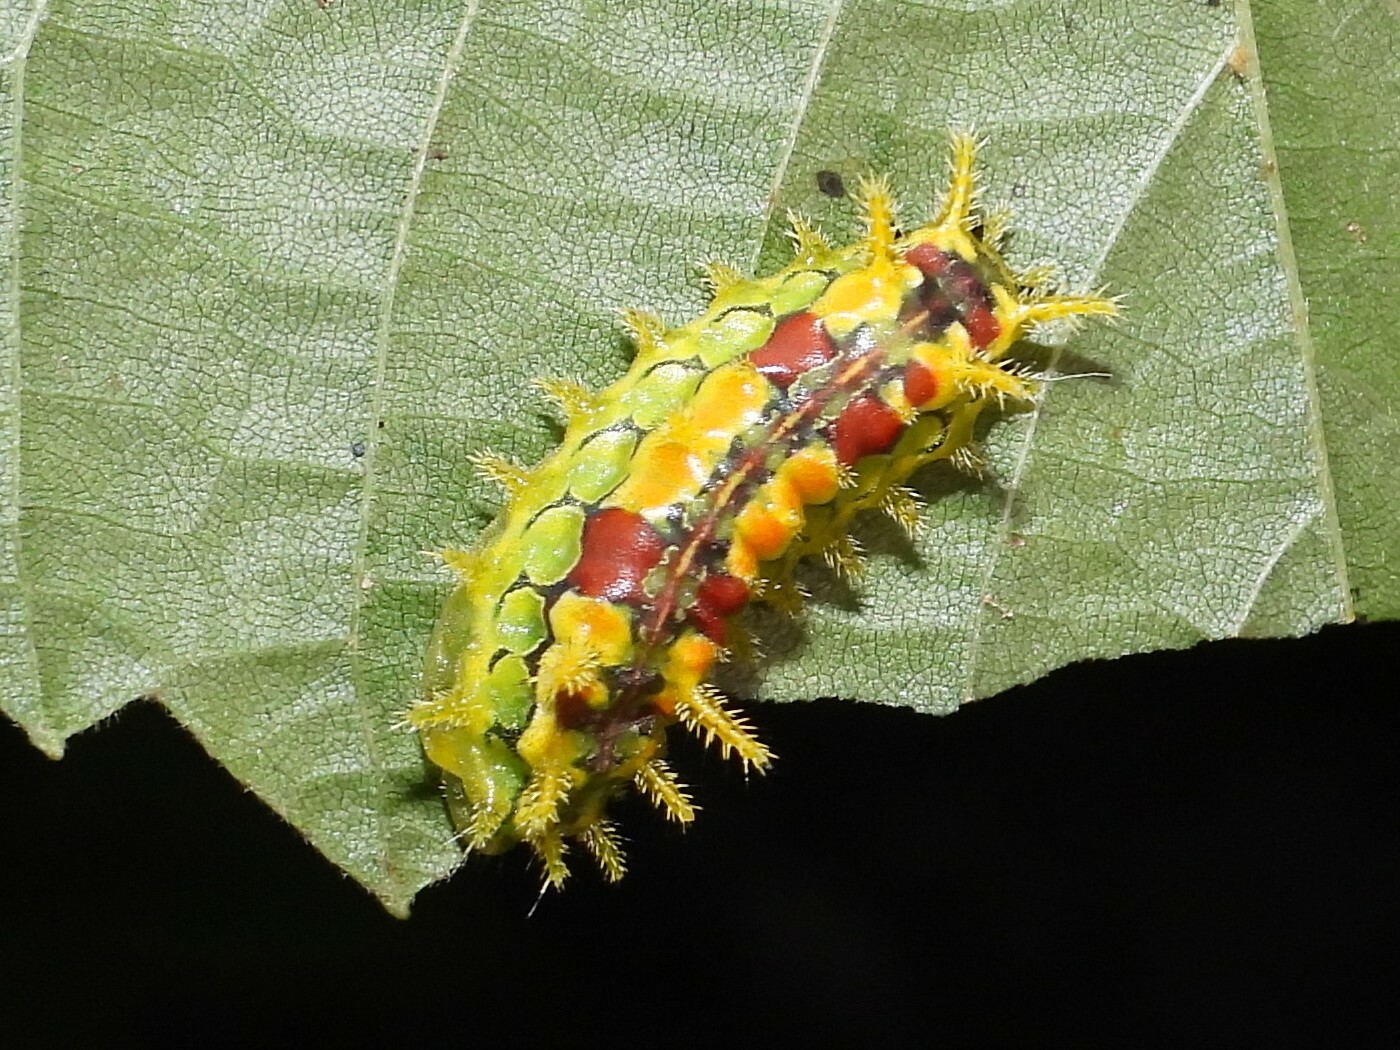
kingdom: Animalia
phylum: Arthropoda
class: Insecta
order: Lepidoptera
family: Limacodidae
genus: Euclea
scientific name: Euclea delphinii
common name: Spiny oak-slug moth
